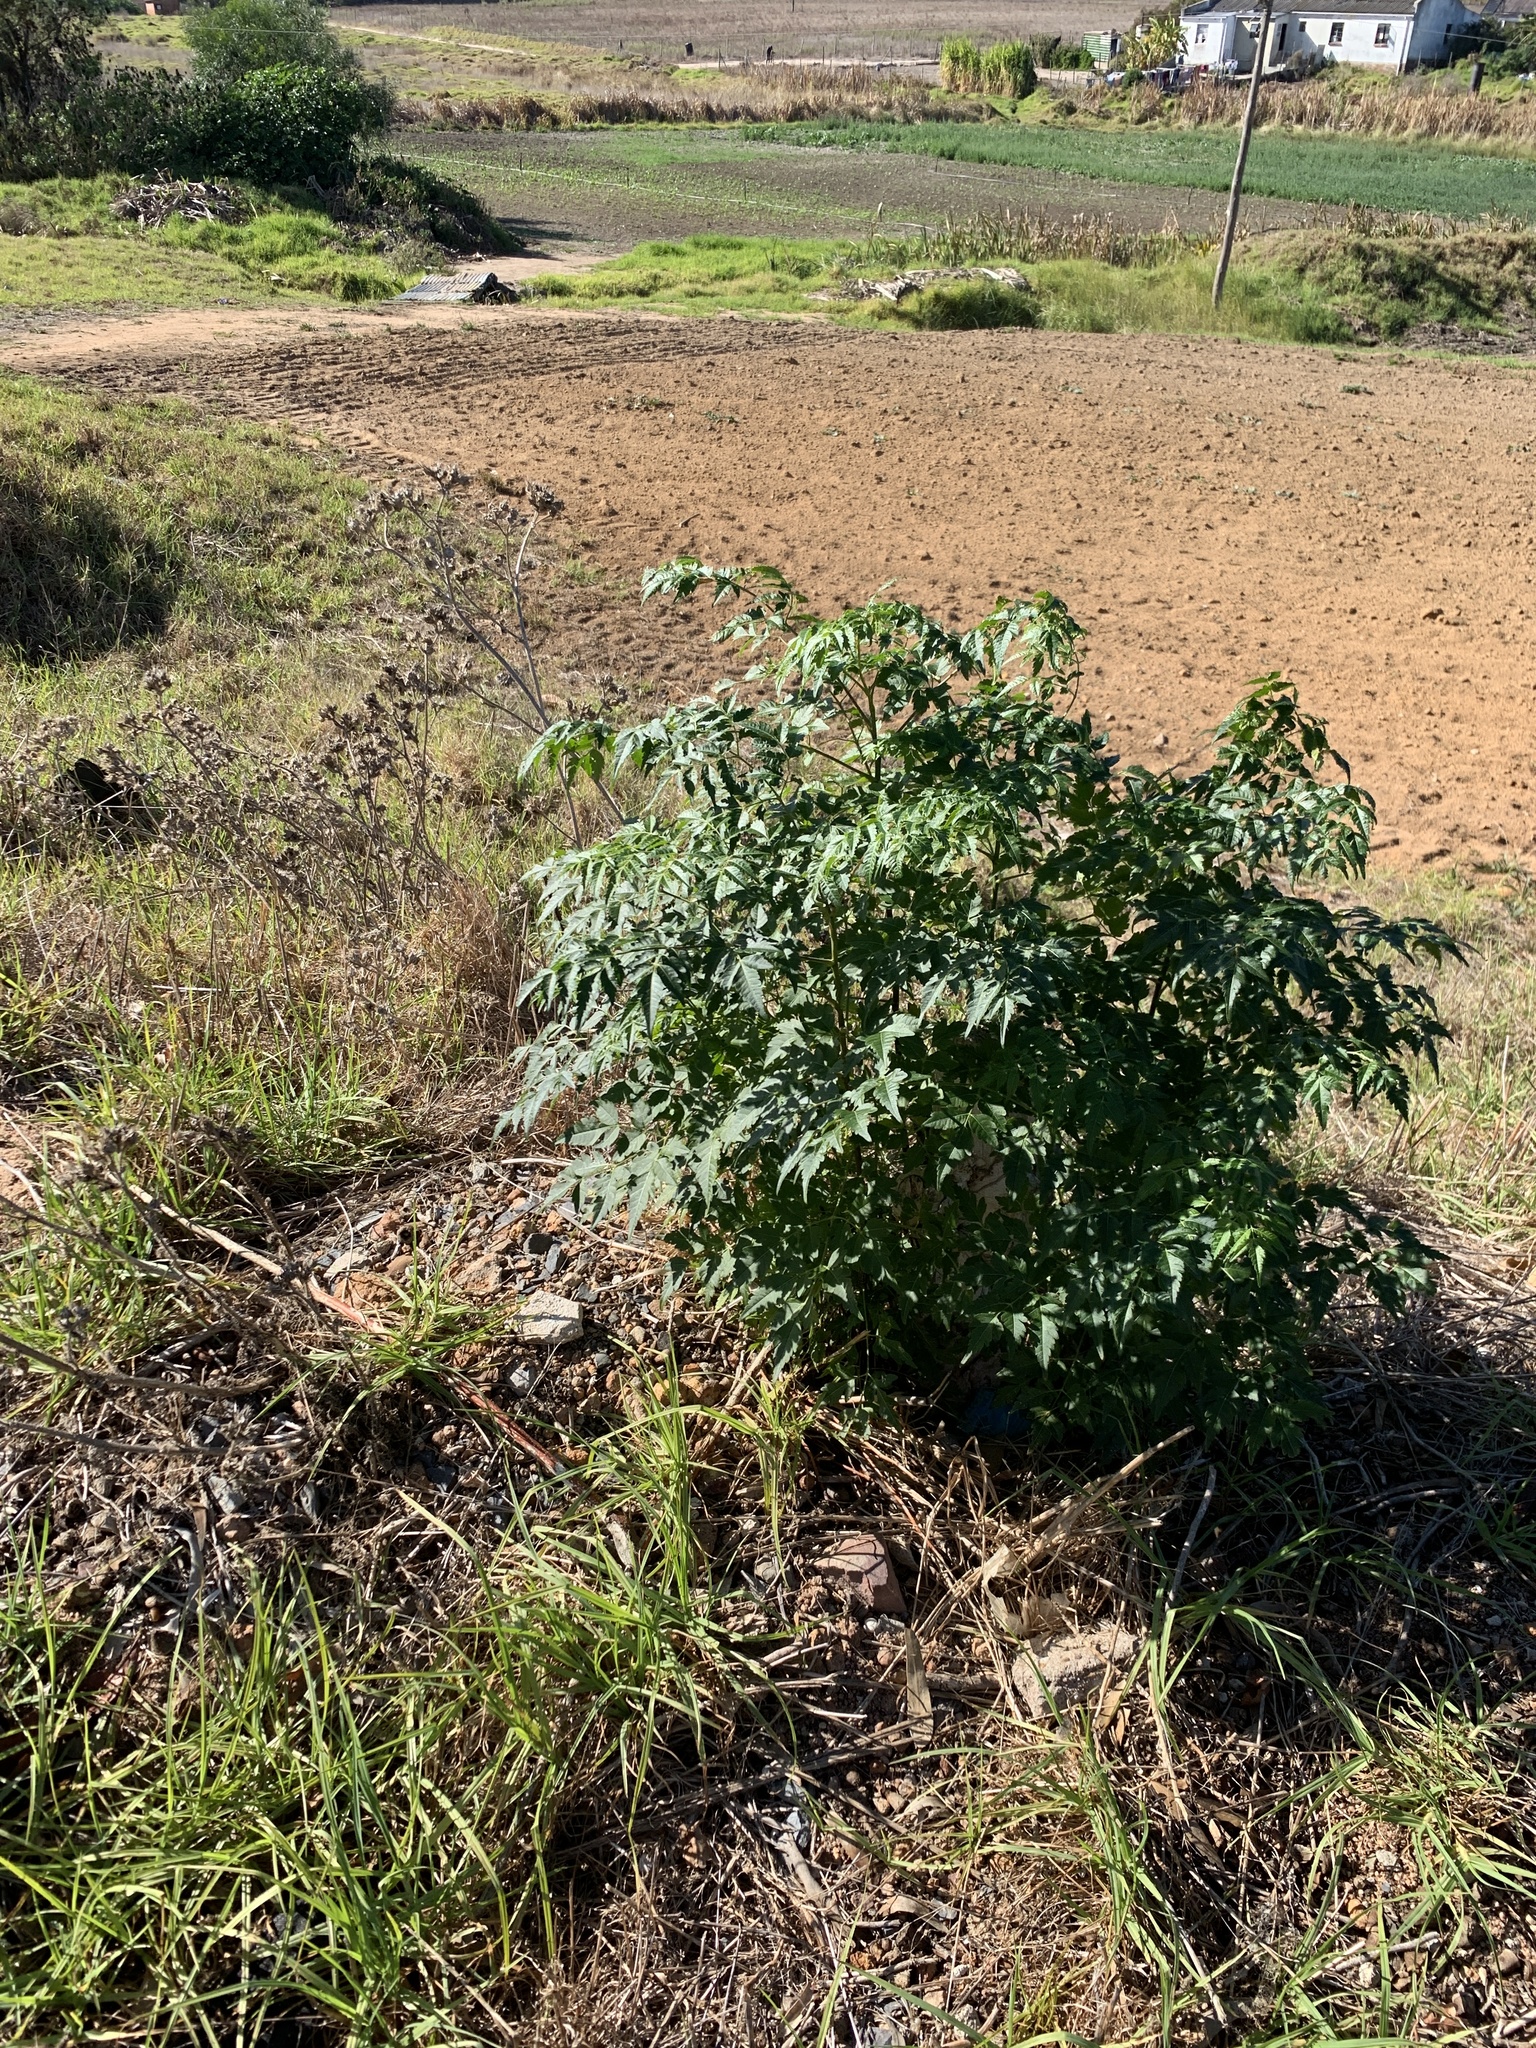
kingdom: Plantae
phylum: Tracheophyta
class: Magnoliopsida
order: Sapindales
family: Meliaceae
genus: Melia
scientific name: Melia azedarach
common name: Chinaberrytree
